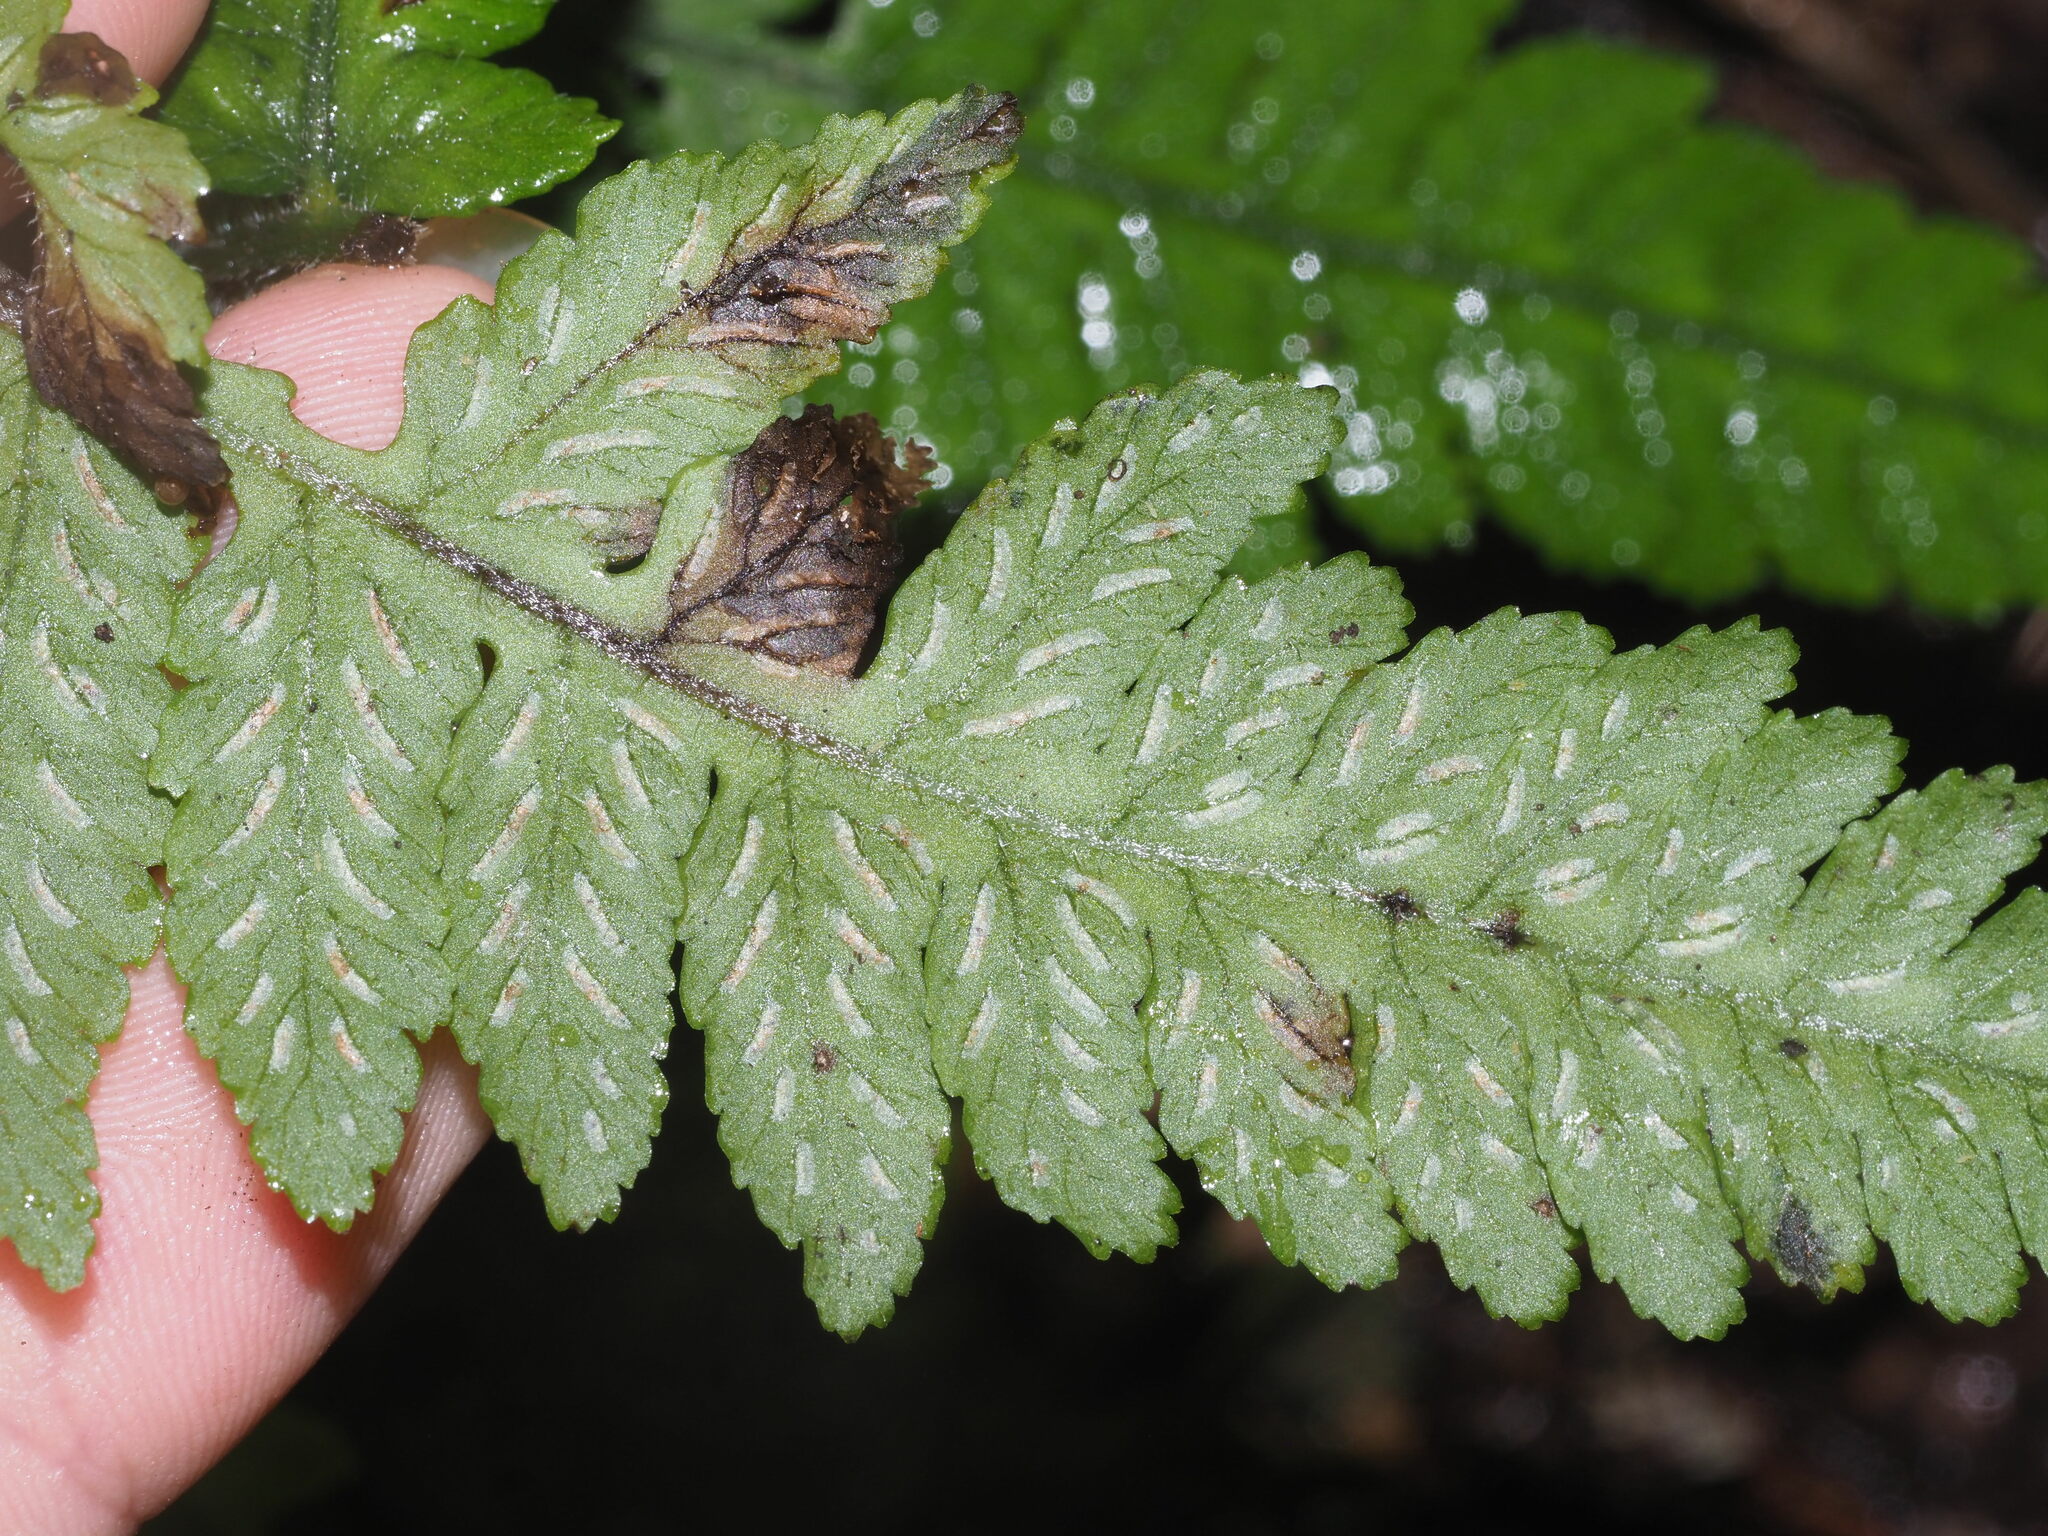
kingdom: Plantae
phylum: Tracheophyta
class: Polypodiopsida
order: Polypodiales
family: Athyriaceae
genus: Deparia
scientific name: Deparia petersenii
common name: Japanese false spleenwort
